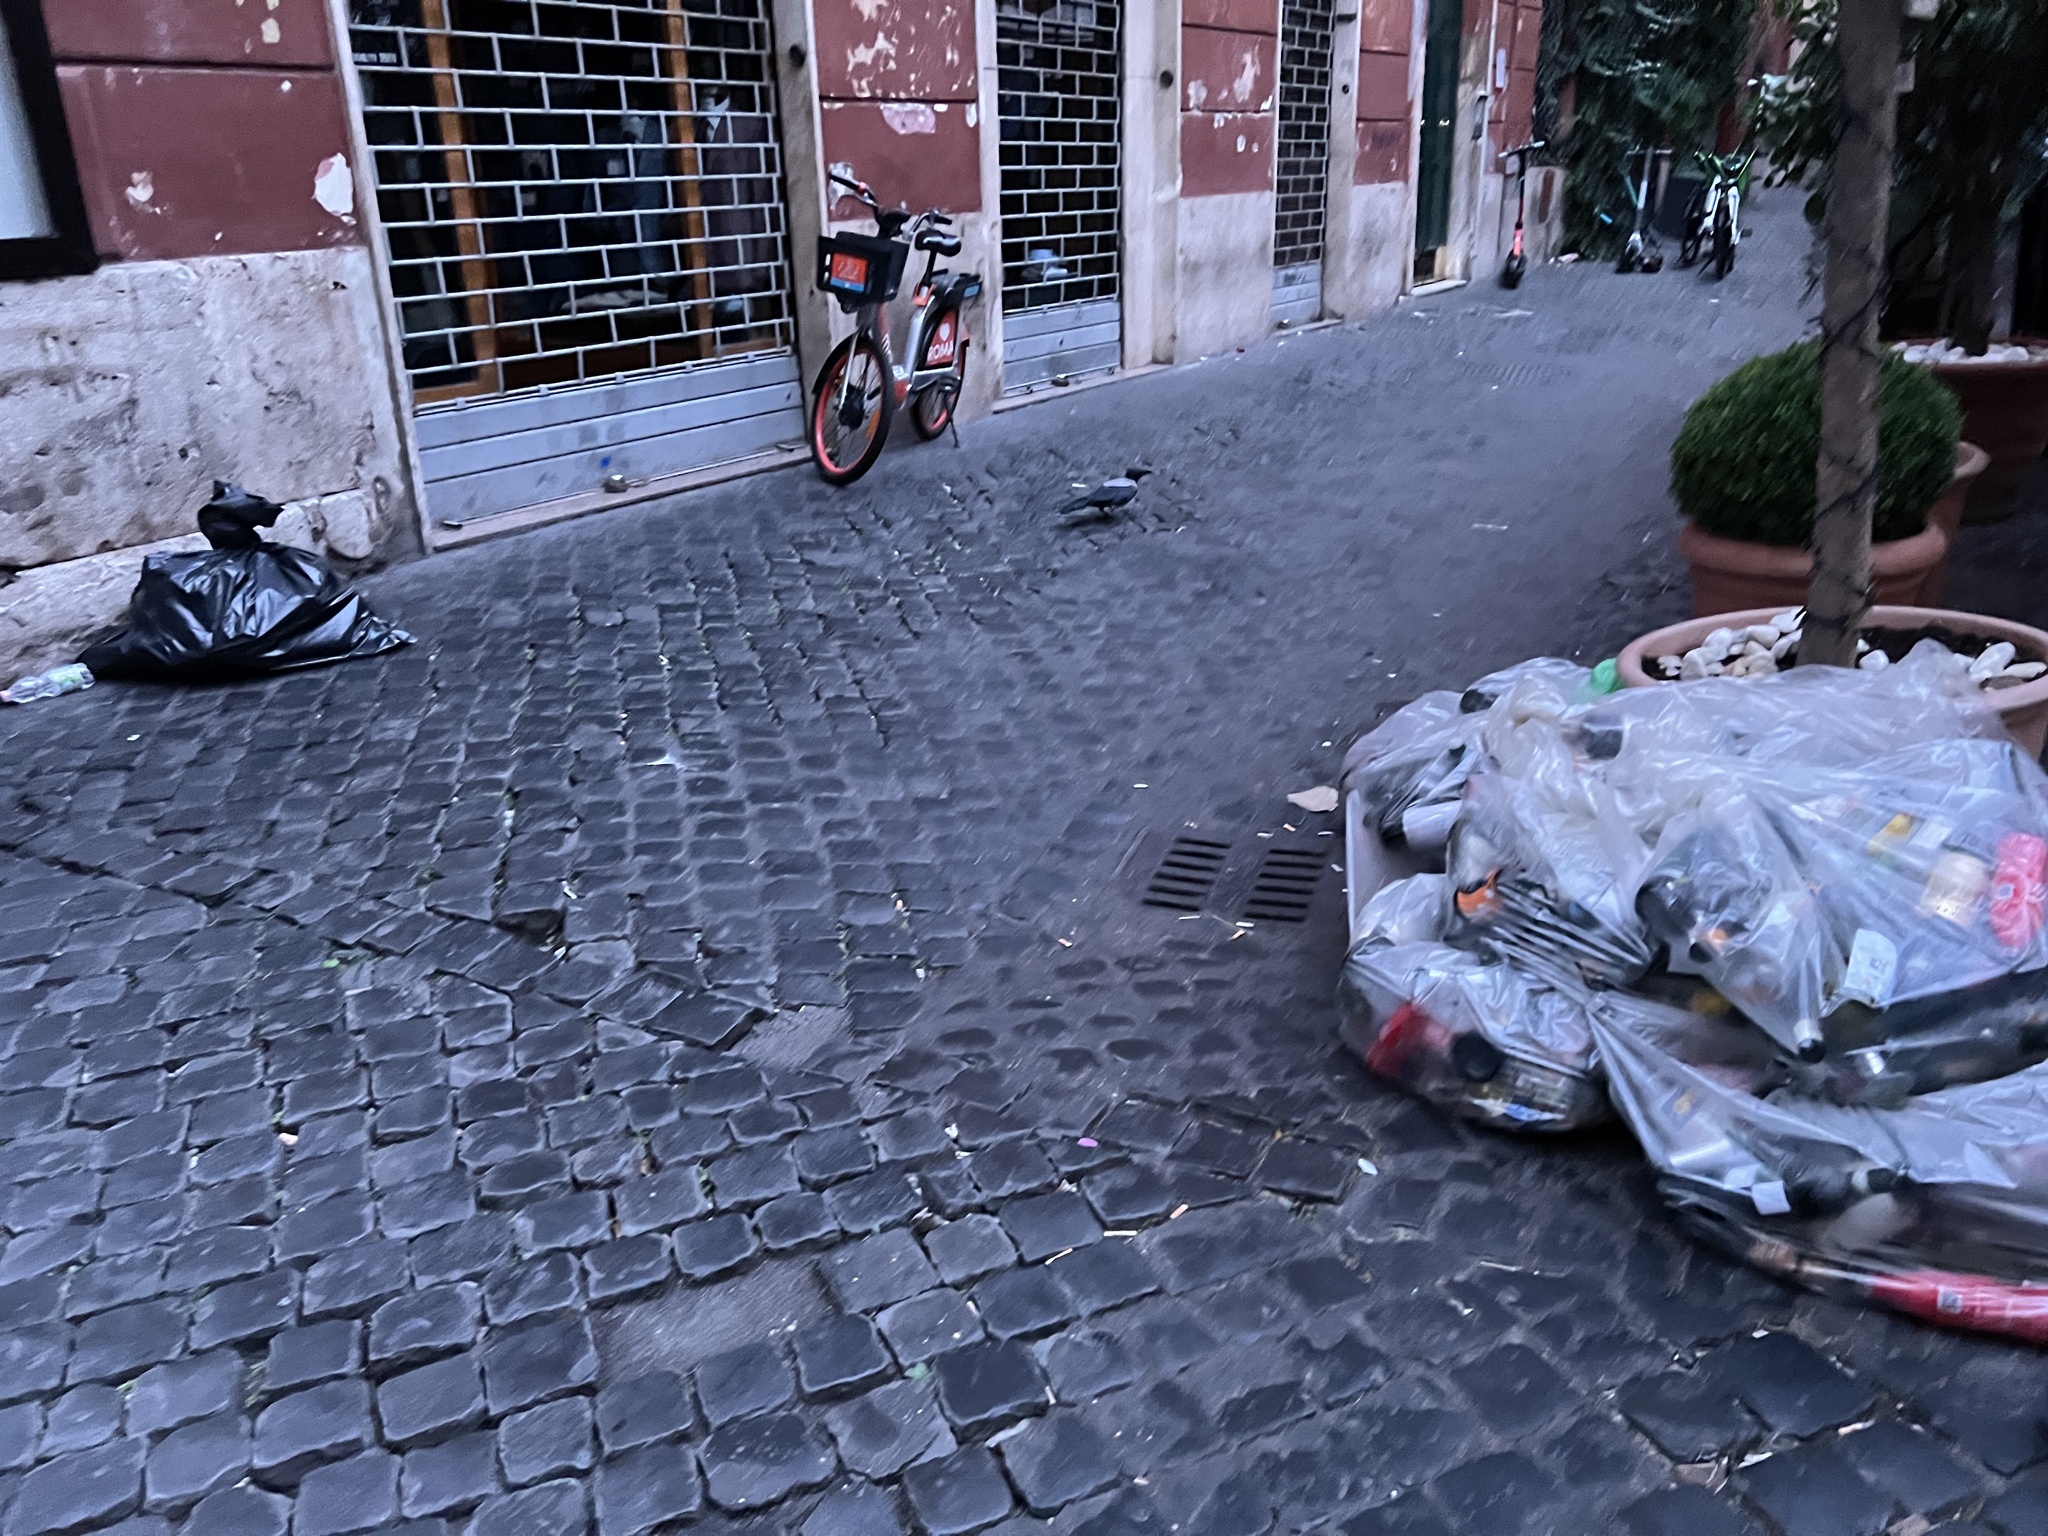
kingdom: Animalia
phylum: Chordata
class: Aves
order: Passeriformes
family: Corvidae
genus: Corvus
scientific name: Corvus cornix
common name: Hooded crow
